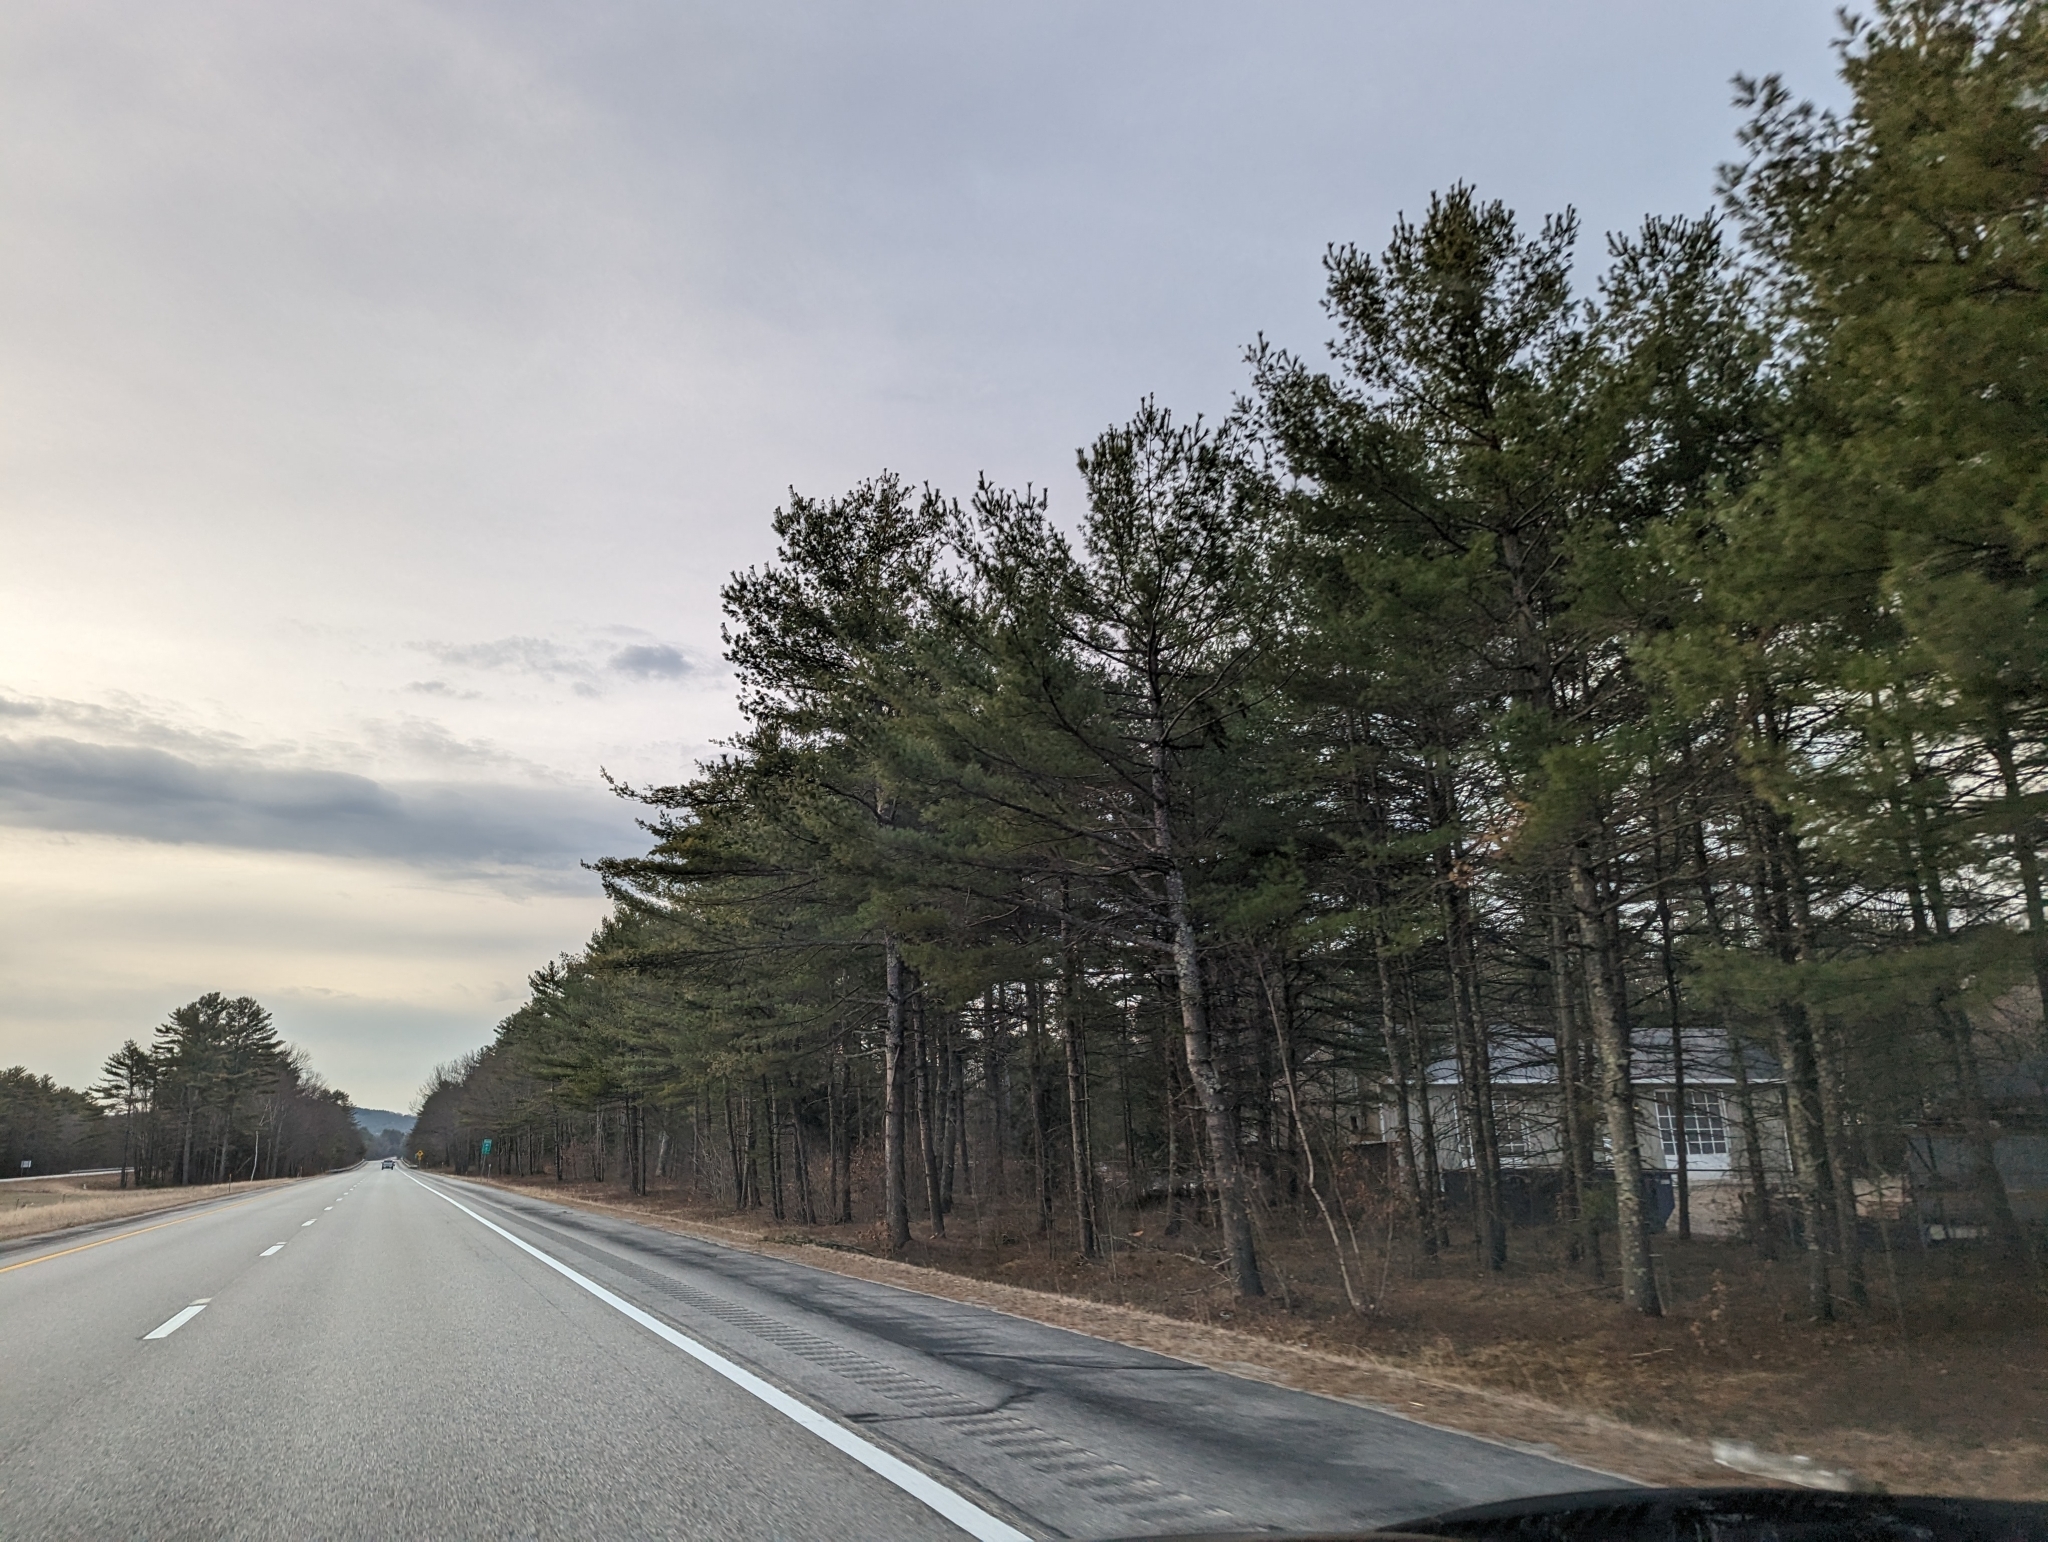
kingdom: Plantae
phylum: Tracheophyta
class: Pinopsida
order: Pinales
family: Pinaceae
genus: Pinus
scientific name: Pinus strobus
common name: Weymouth pine
